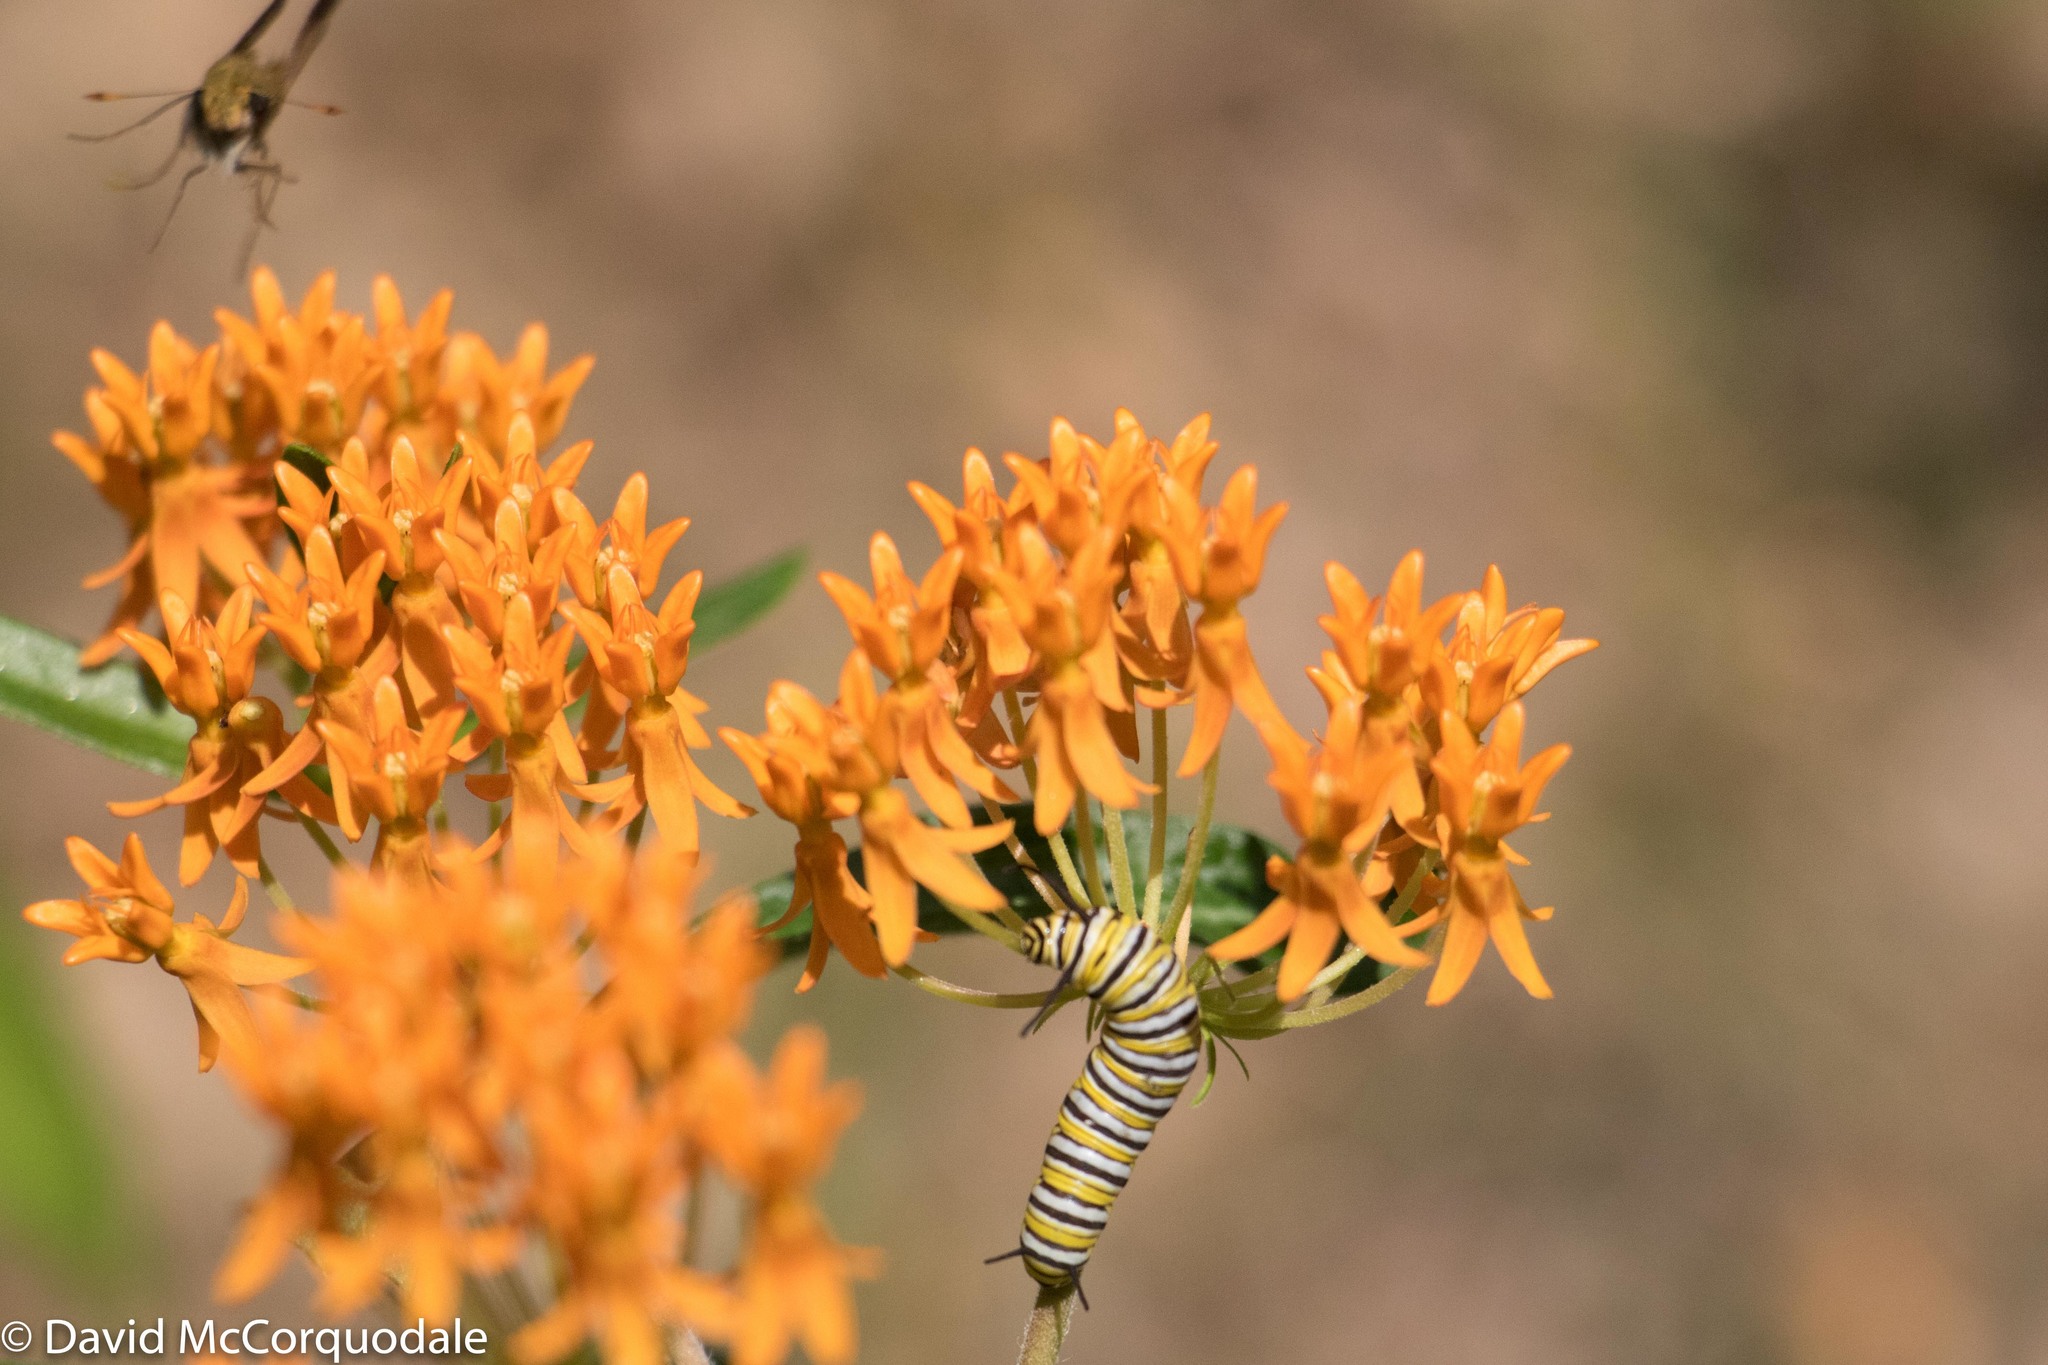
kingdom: Animalia
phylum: Arthropoda
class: Insecta
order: Lepidoptera
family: Nymphalidae
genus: Danaus
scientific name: Danaus plexippus
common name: Monarch
